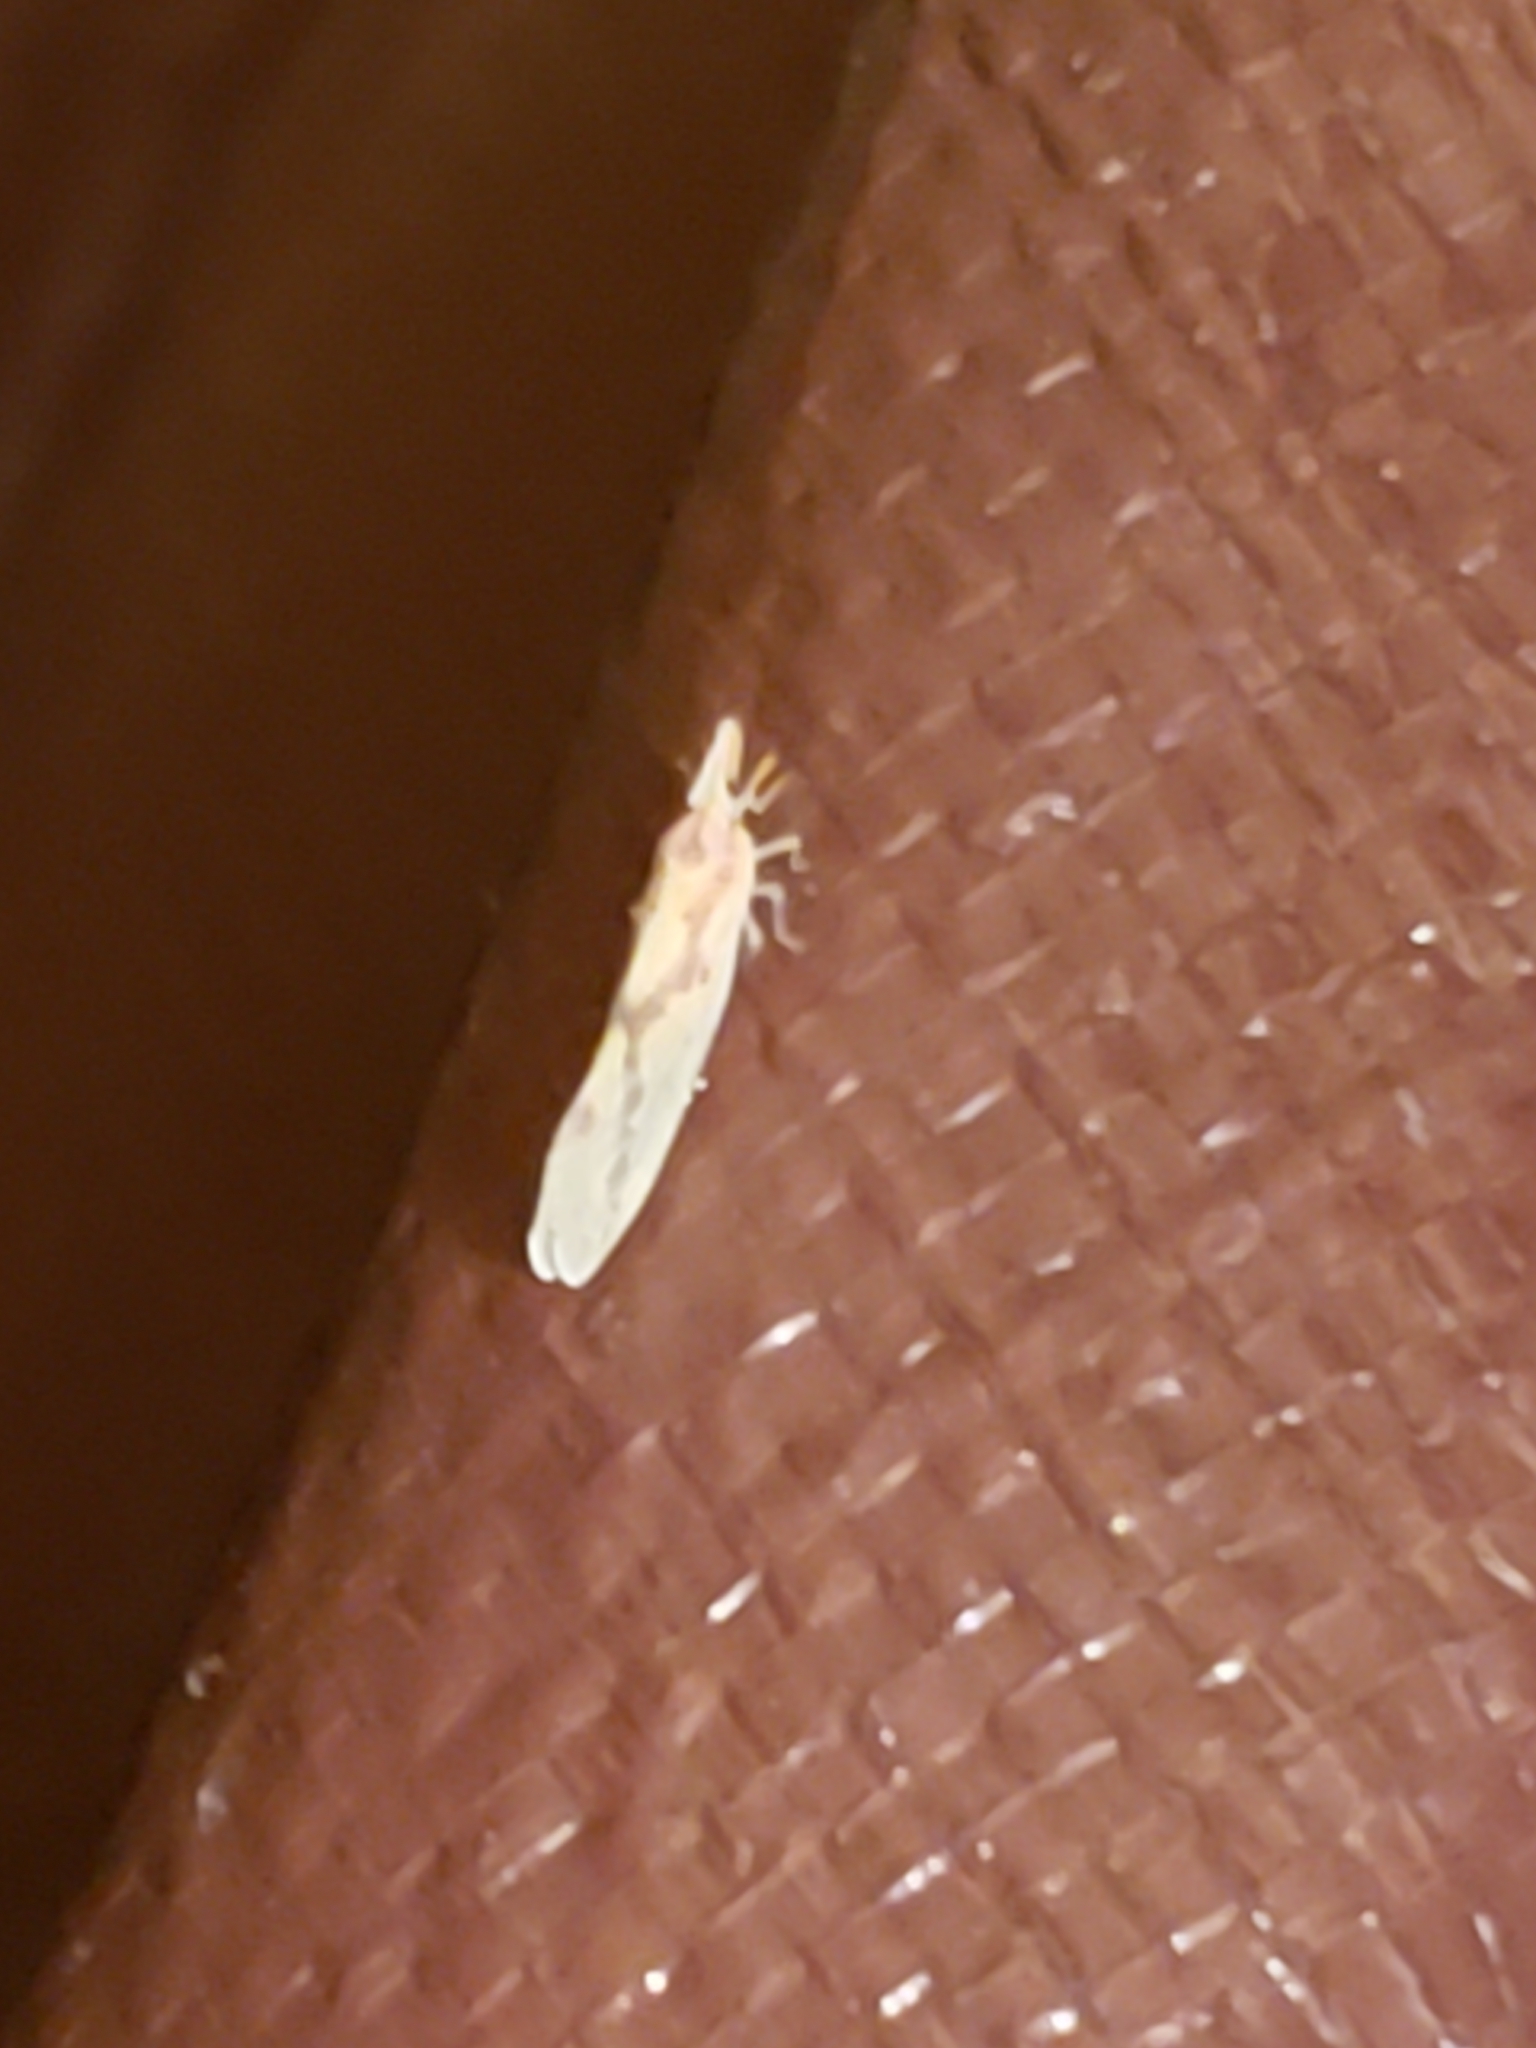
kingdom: Animalia
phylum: Arthropoda
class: Insecta
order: Hemiptera
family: Derbidae
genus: Otiocerus
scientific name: Otiocerus wolfii
